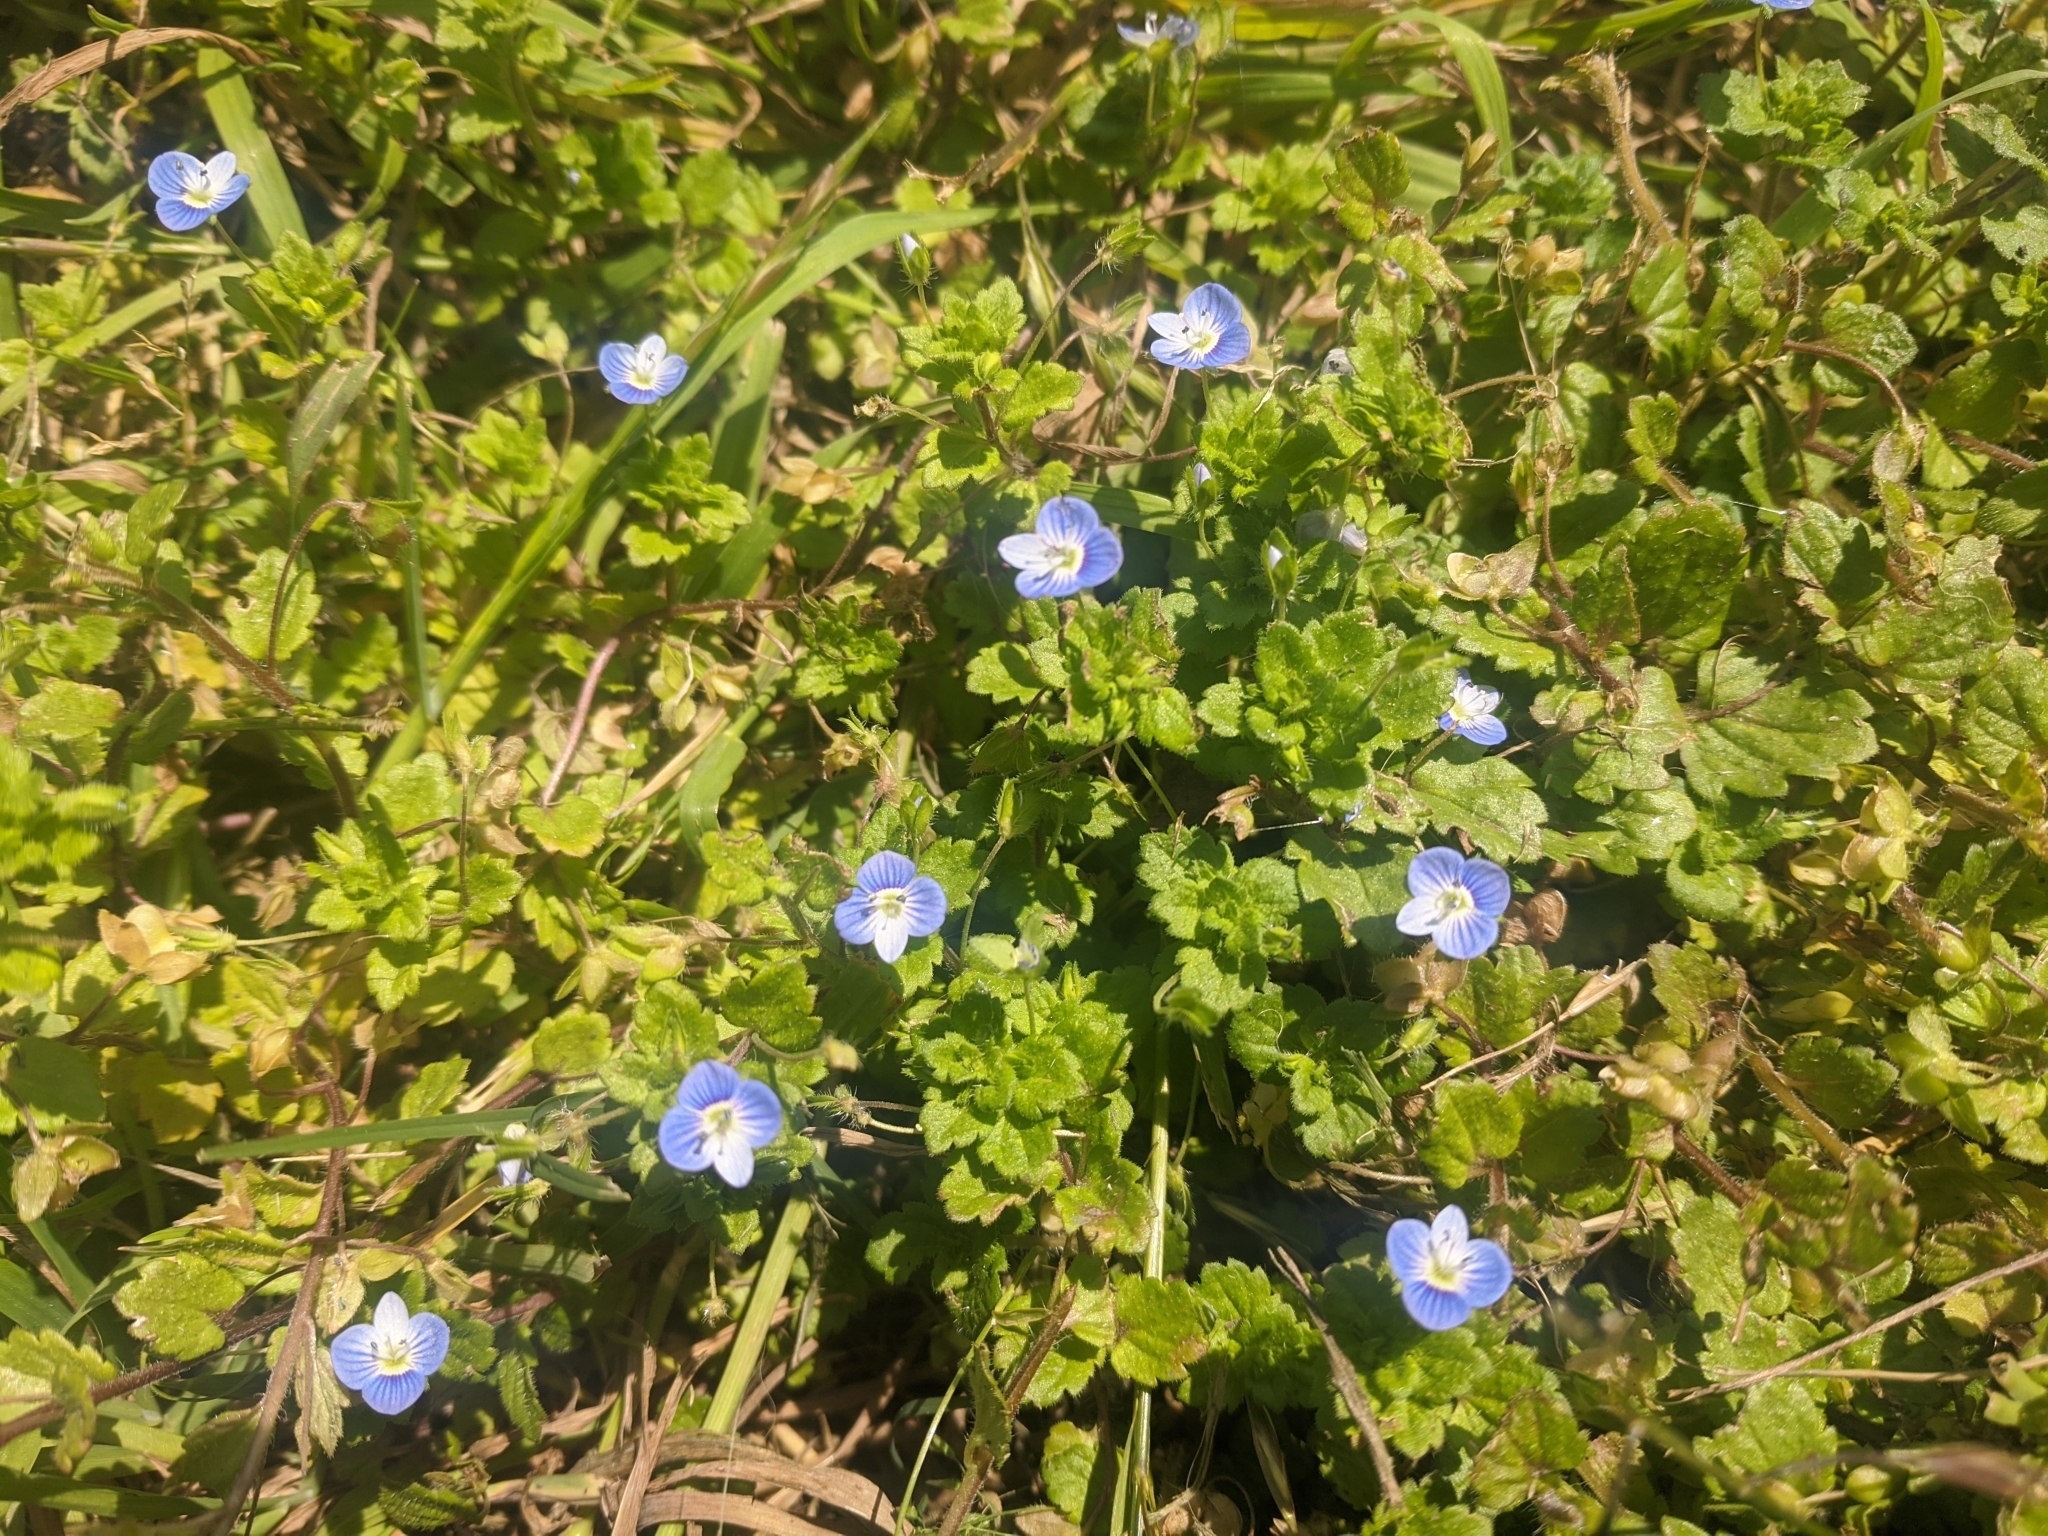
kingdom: Plantae
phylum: Tracheophyta
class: Magnoliopsida
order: Lamiales
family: Plantaginaceae
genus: Veronica
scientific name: Veronica persica
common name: Common field-speedwell
